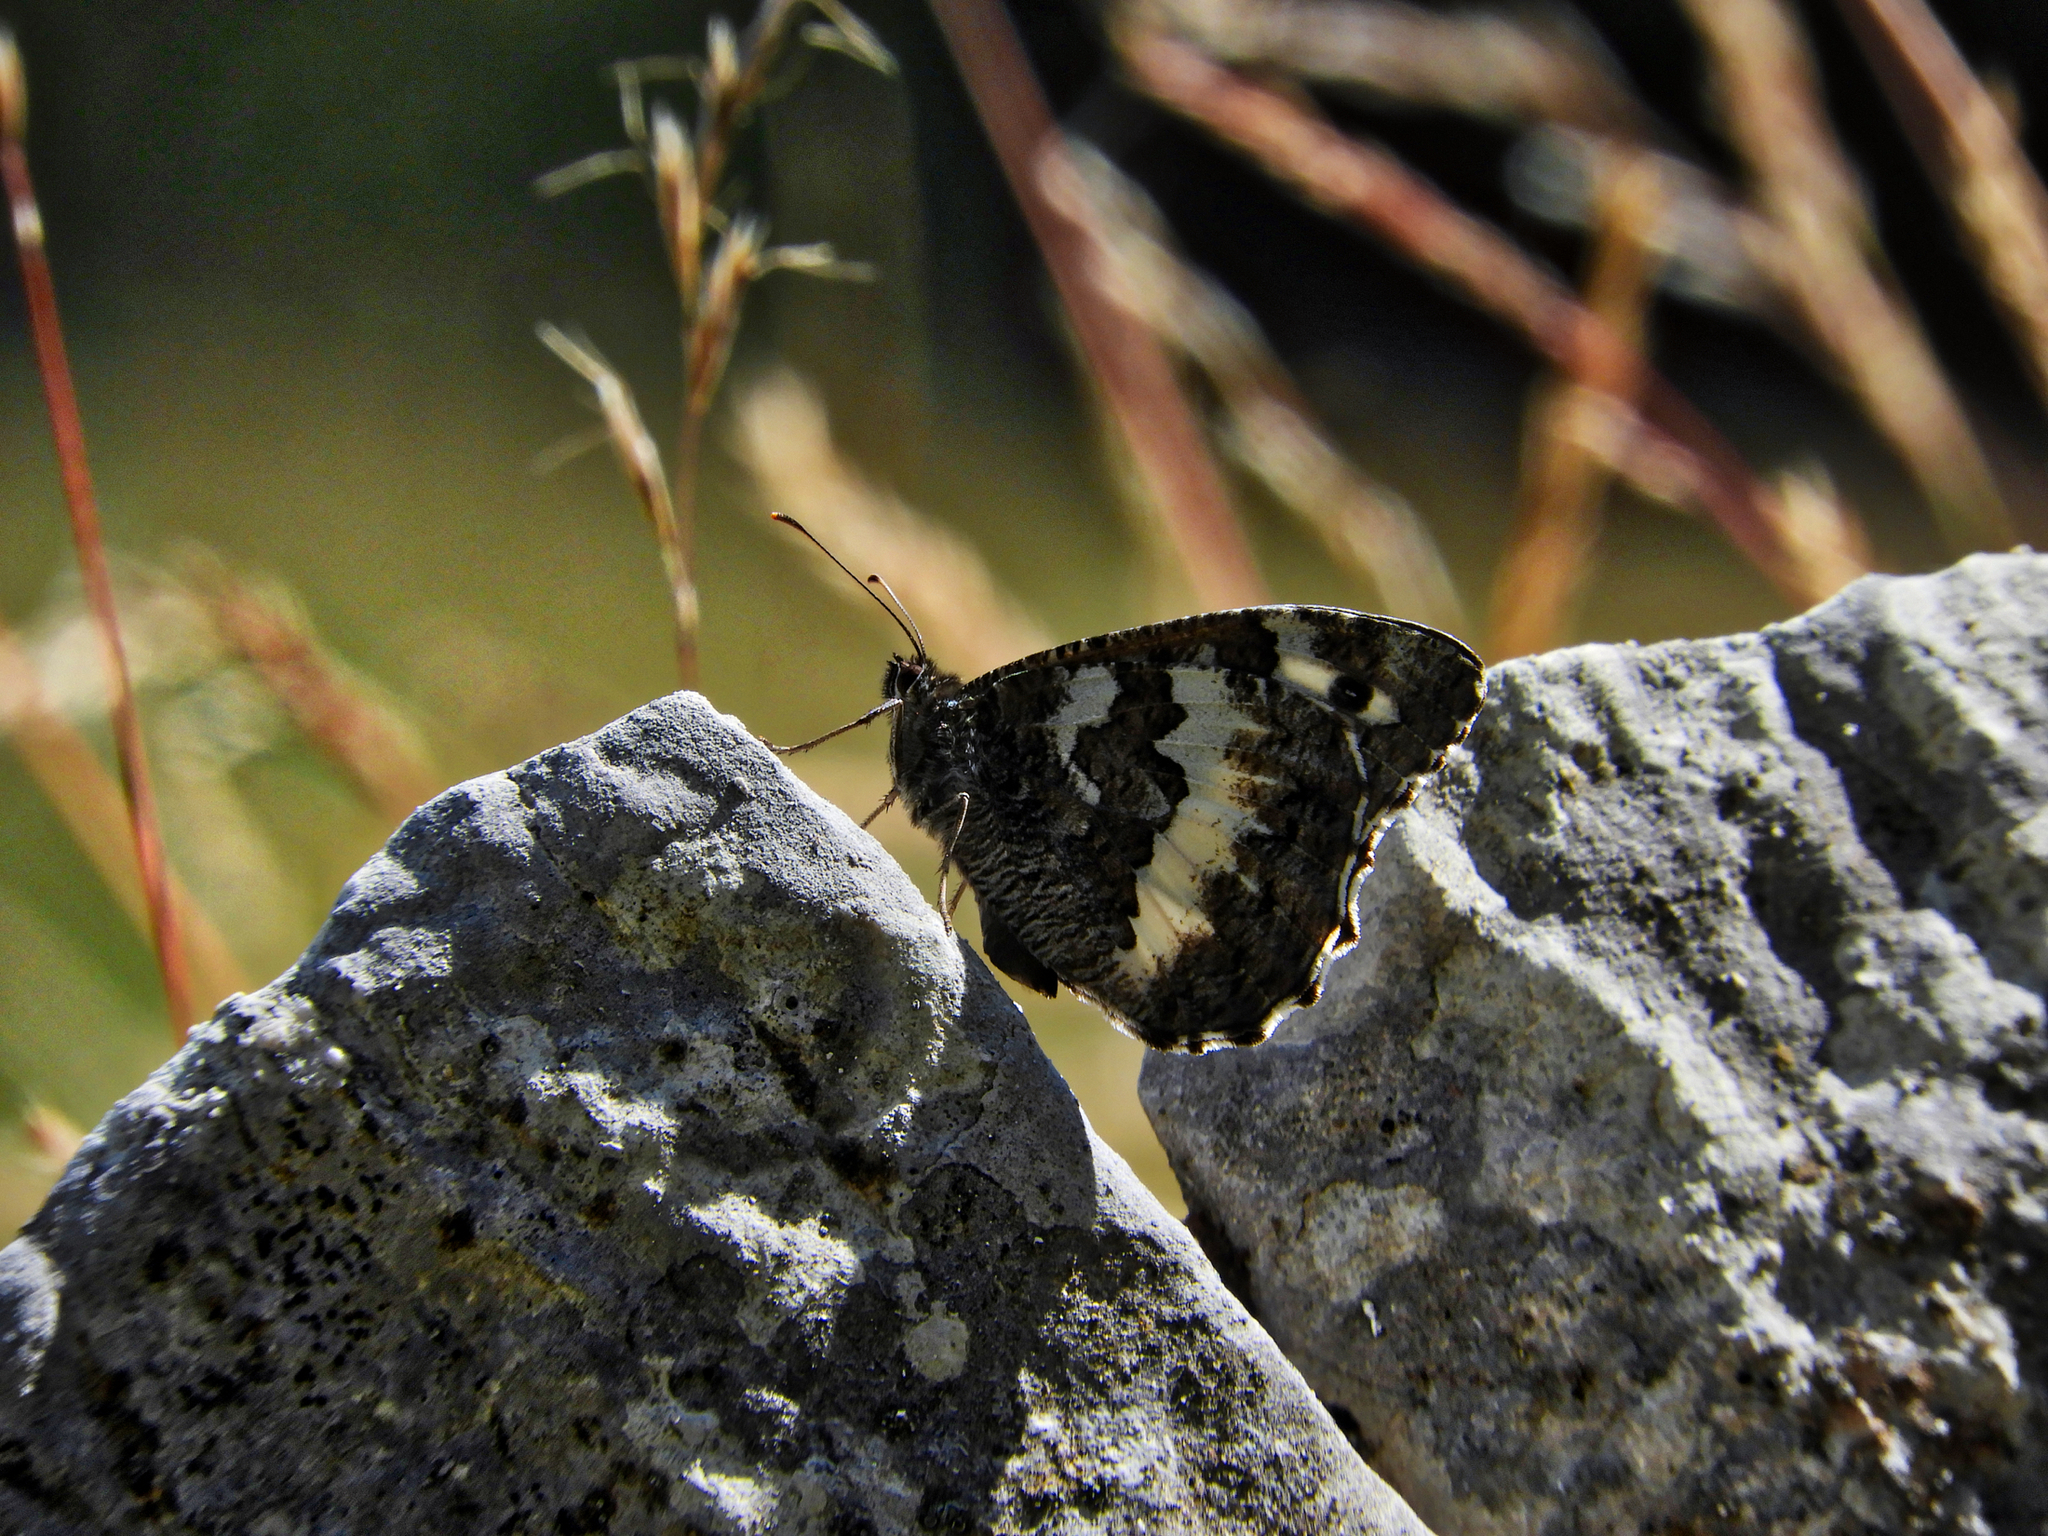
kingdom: Animalia
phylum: Arthropoda
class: Insecta
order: Lepidoptera
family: Lycaenidae
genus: Loweia
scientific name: Loweia tityrus
